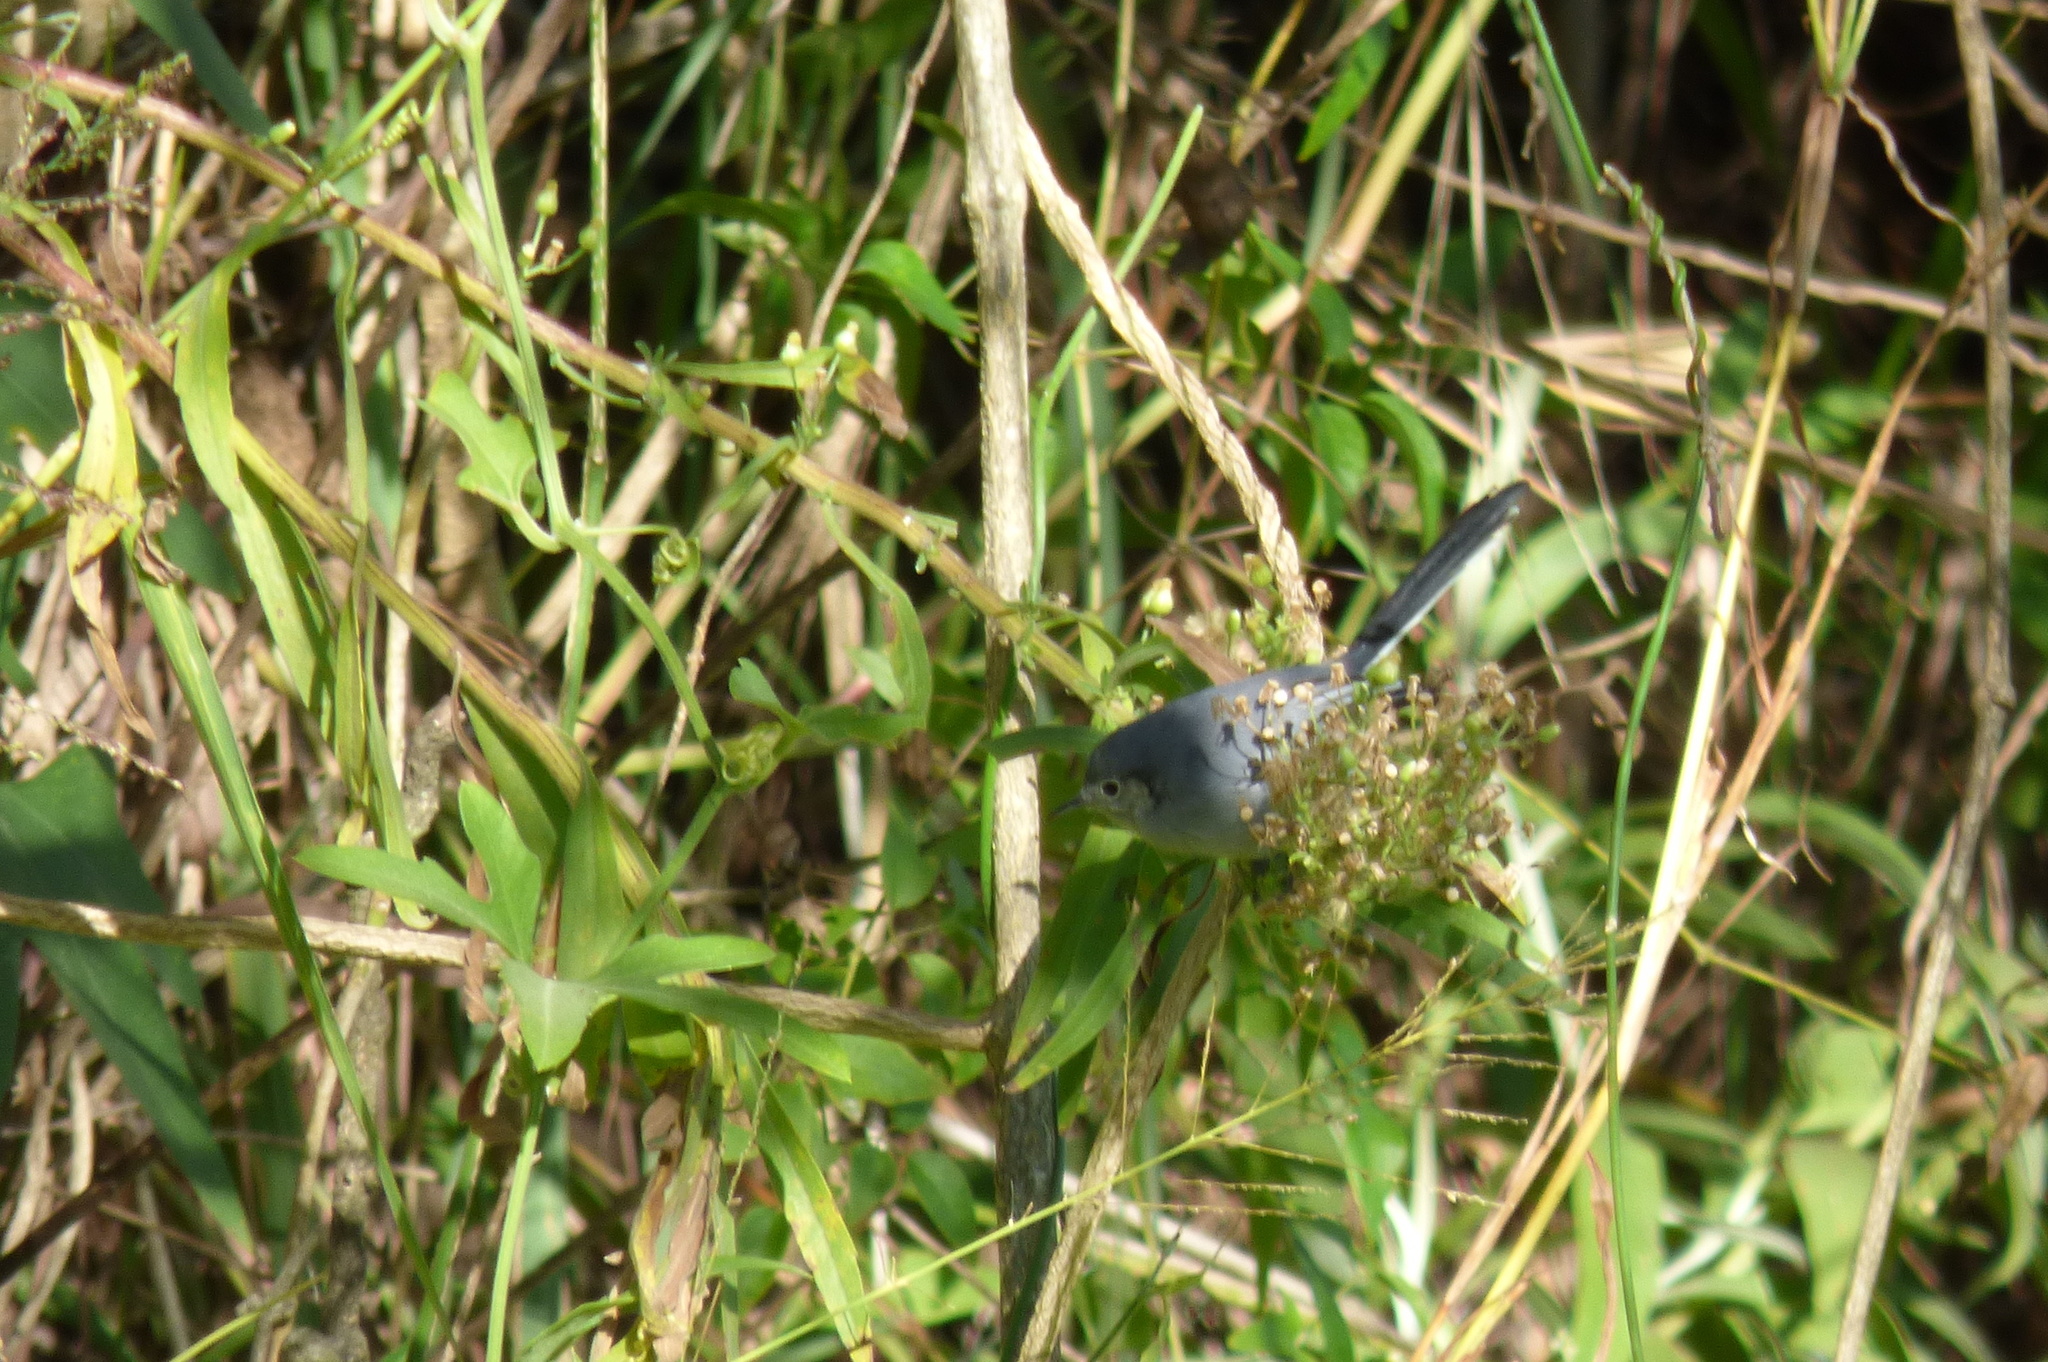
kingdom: Animalia
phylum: Chordata
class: Aves
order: Passeriformes
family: Polioptilidae
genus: Polioptila
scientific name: Polioptila dumicola
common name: Masked gnatcatcher
